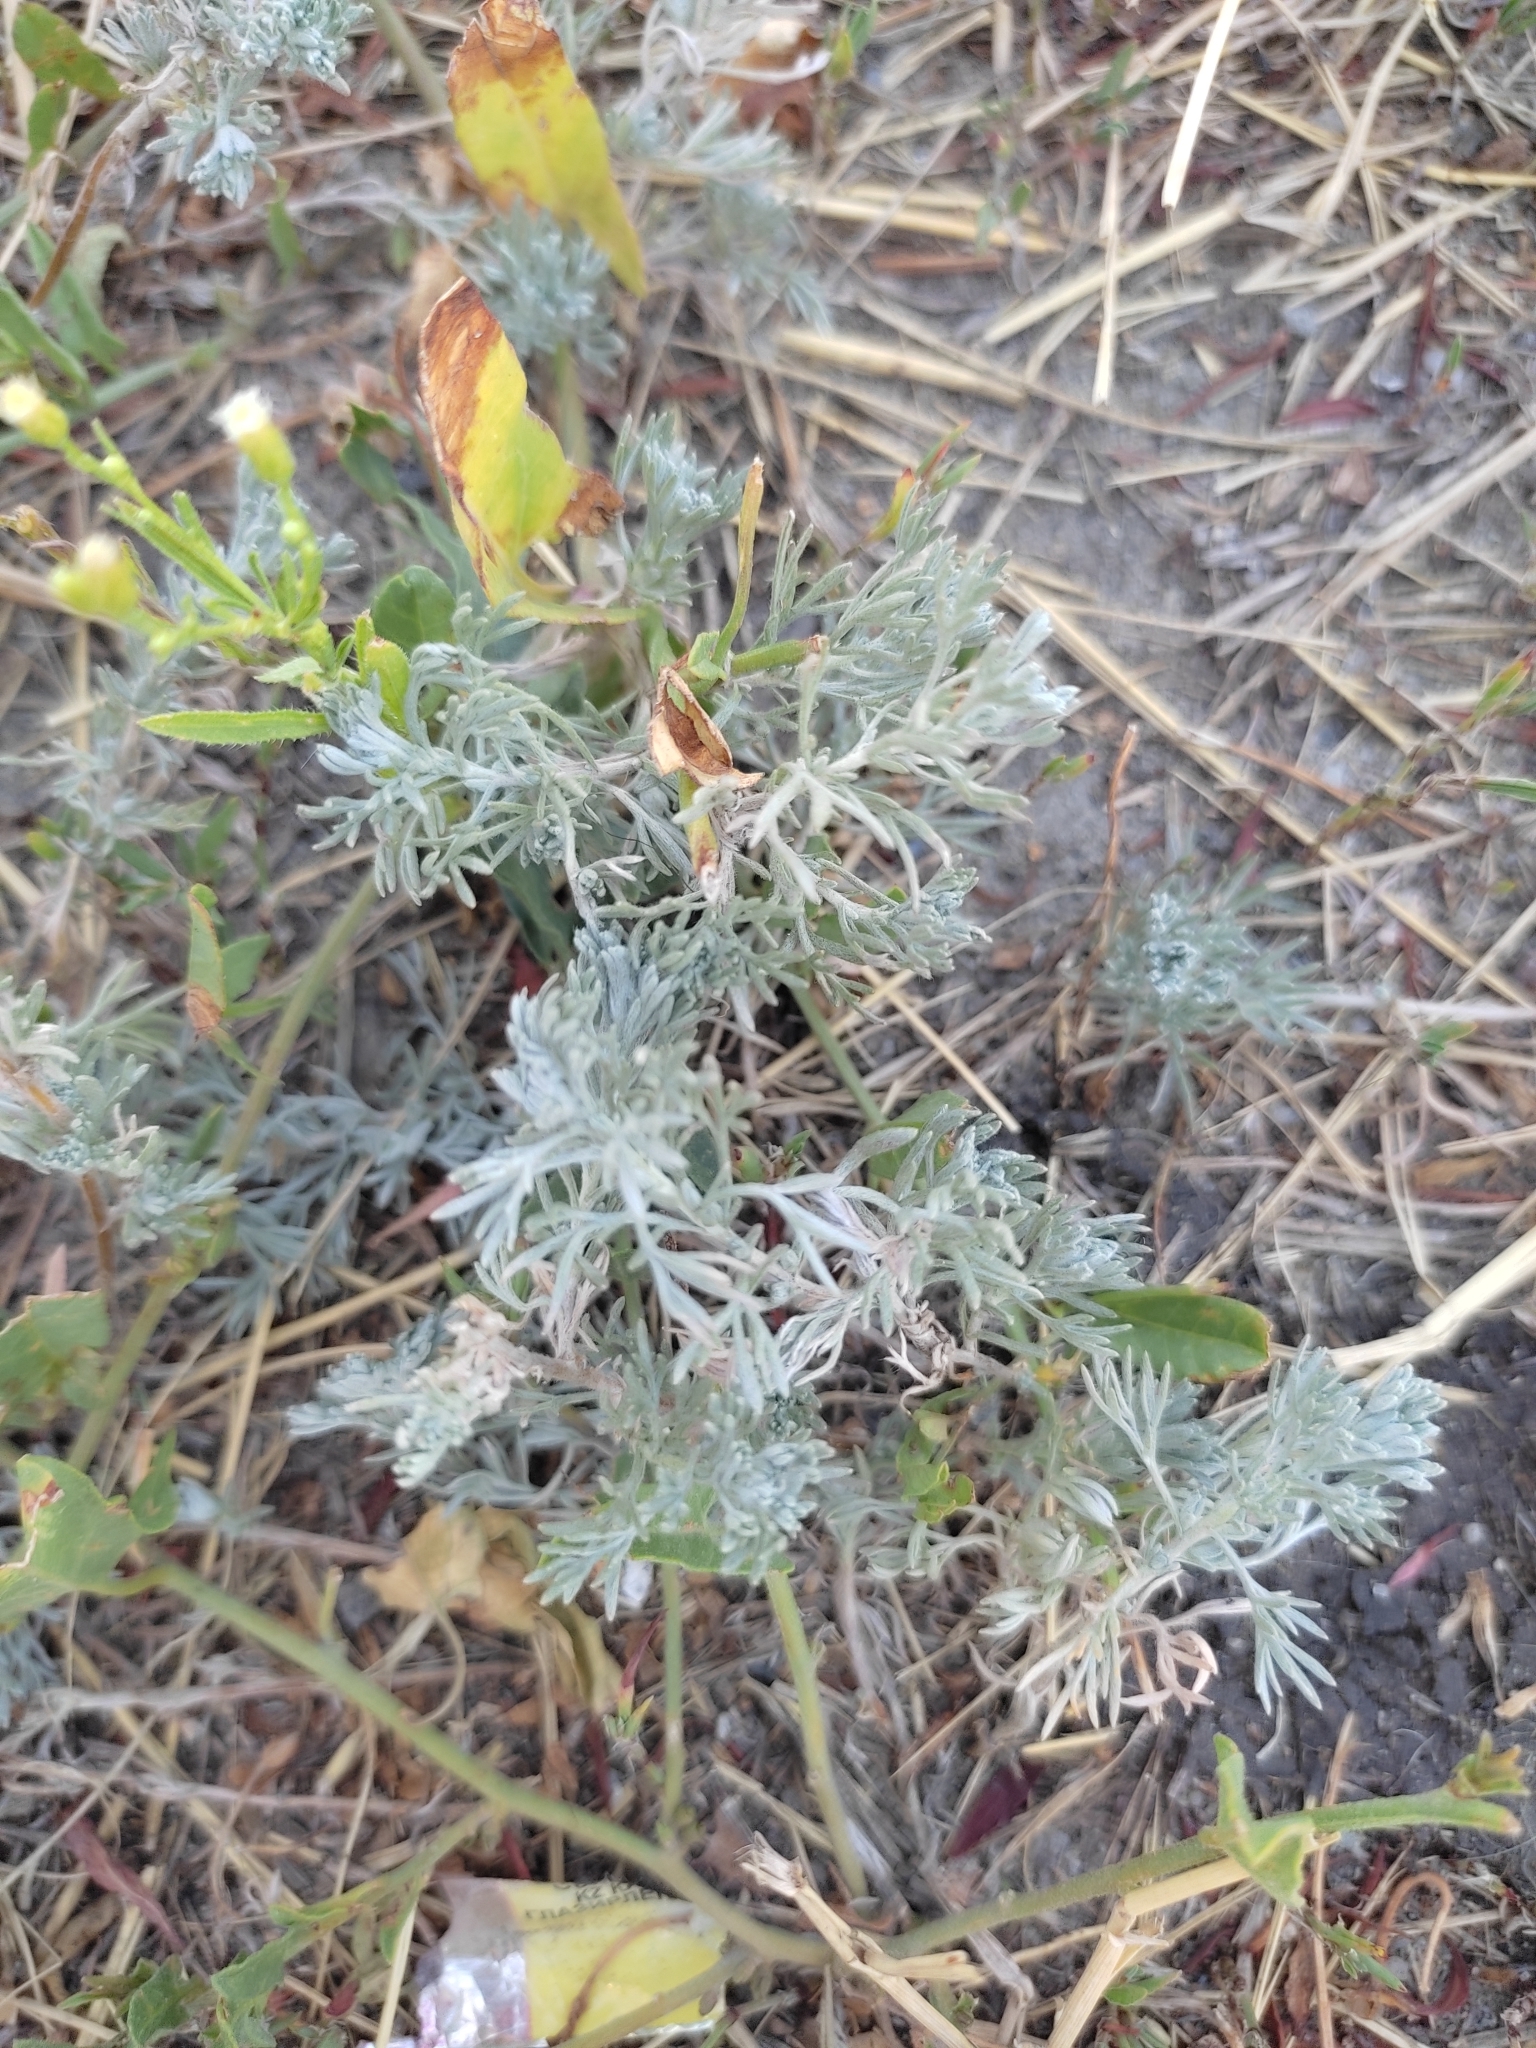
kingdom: Plantae
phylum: Tracheophyta
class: Magnoliopsida
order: Asterales
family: Asteraceae
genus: Artemisia
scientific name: Artemisia austriaca
